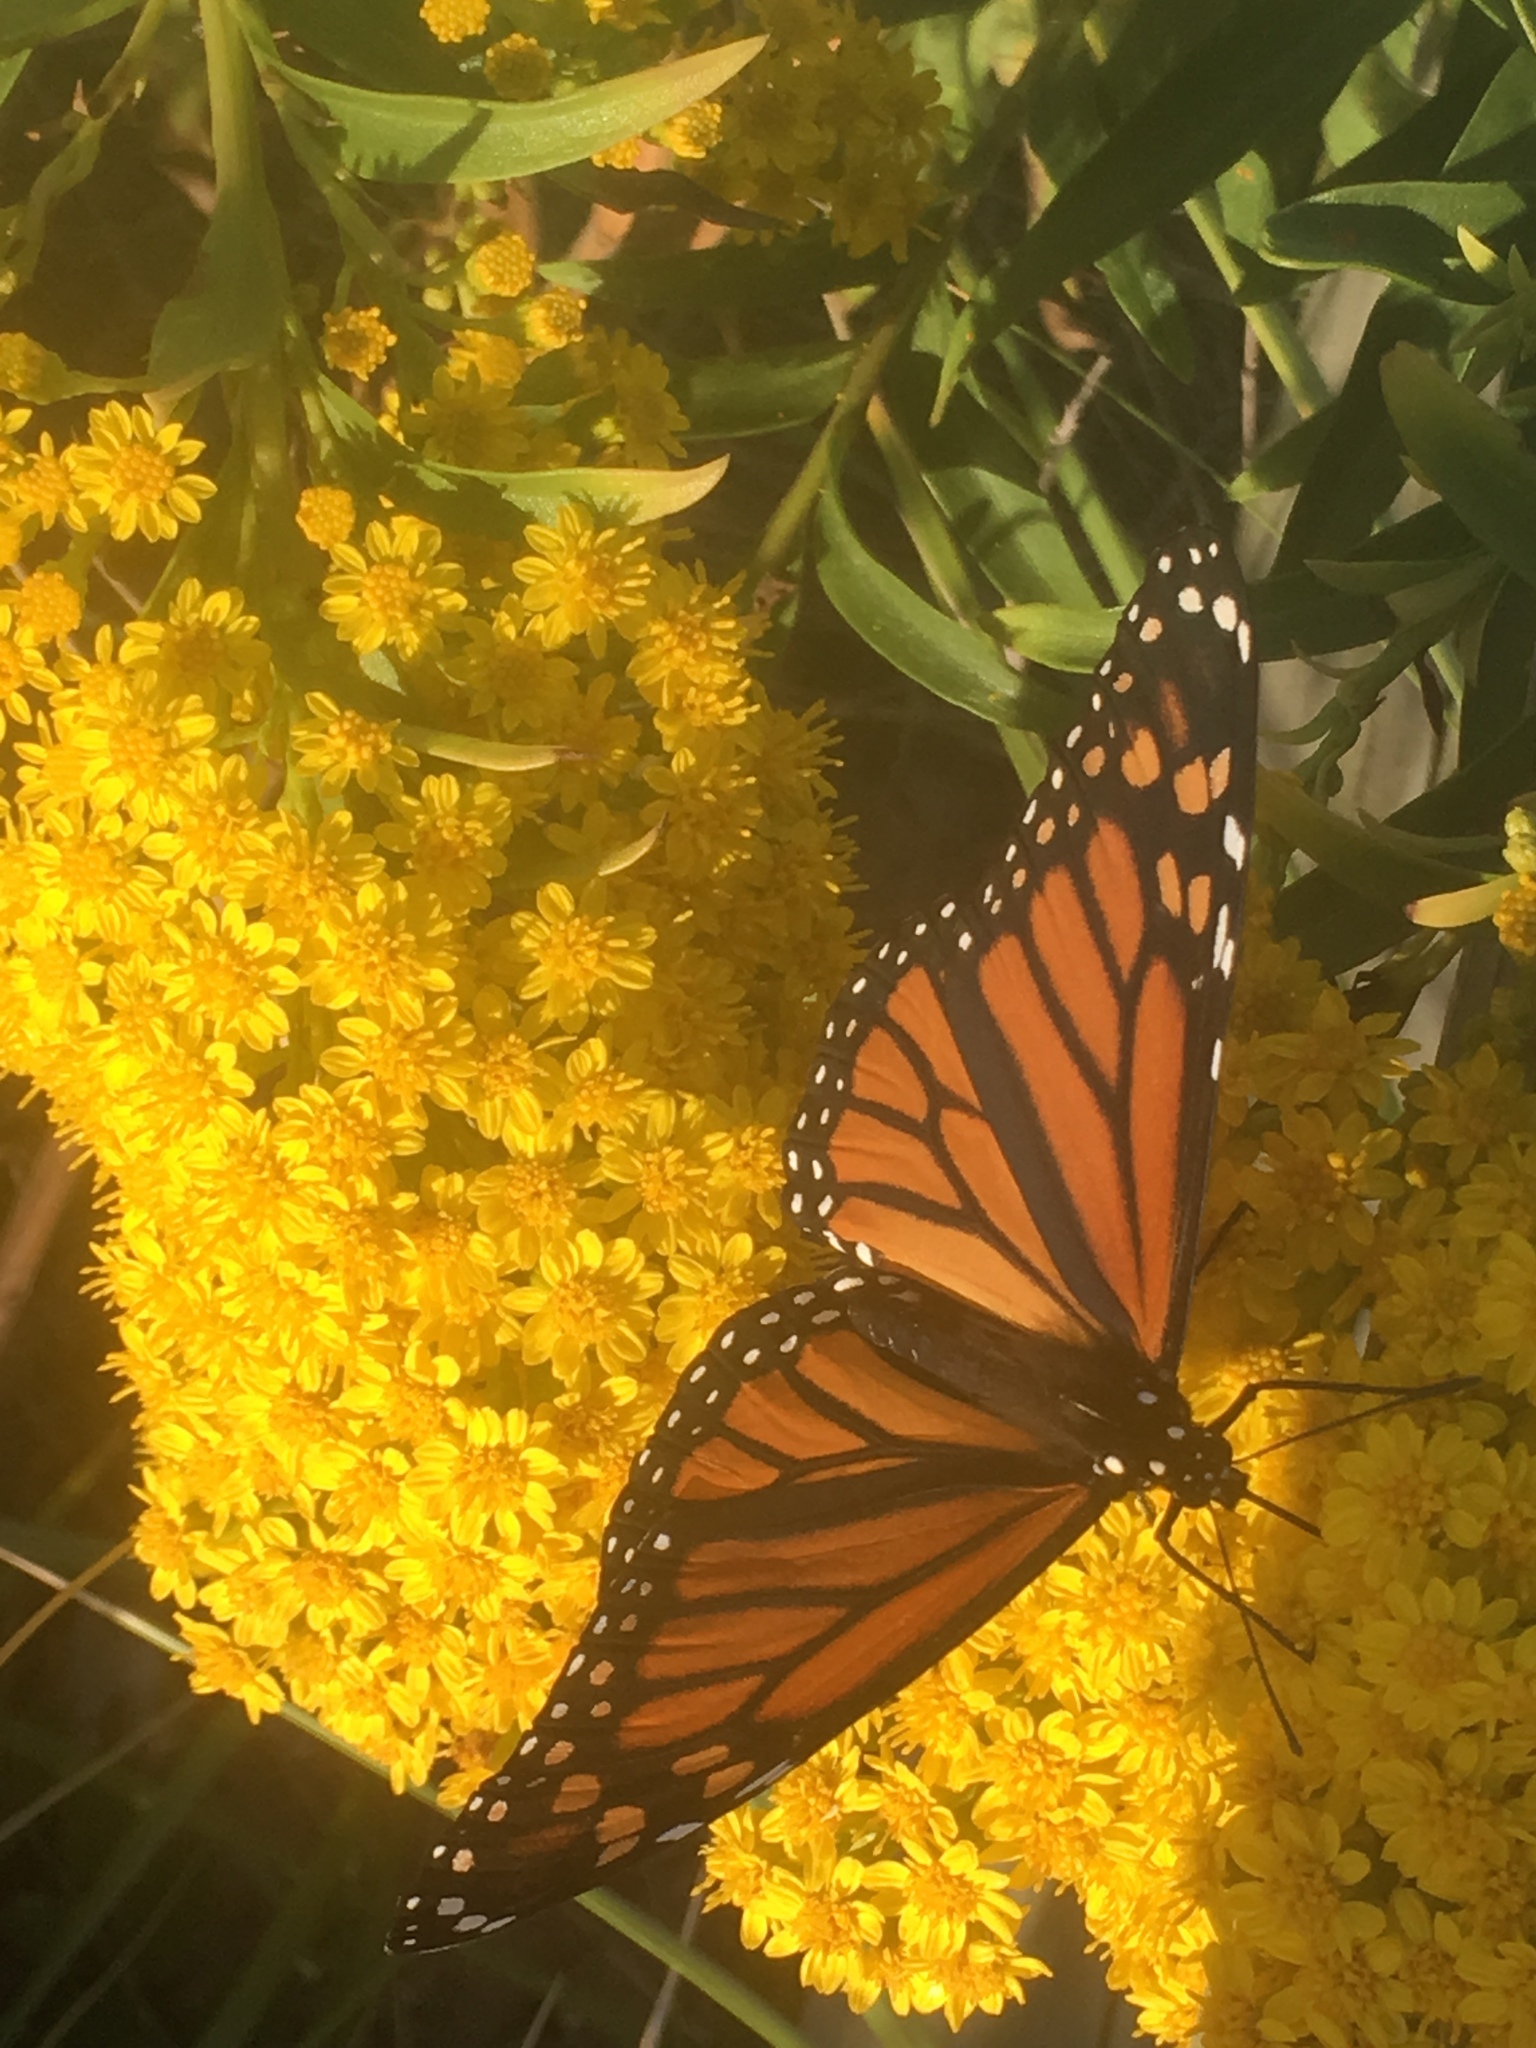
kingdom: Animalia
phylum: Arthropoda
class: Insecta
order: Lepidoptera
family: Nymphalidae
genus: Danaus
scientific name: Danaus plexippus
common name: Monarch
